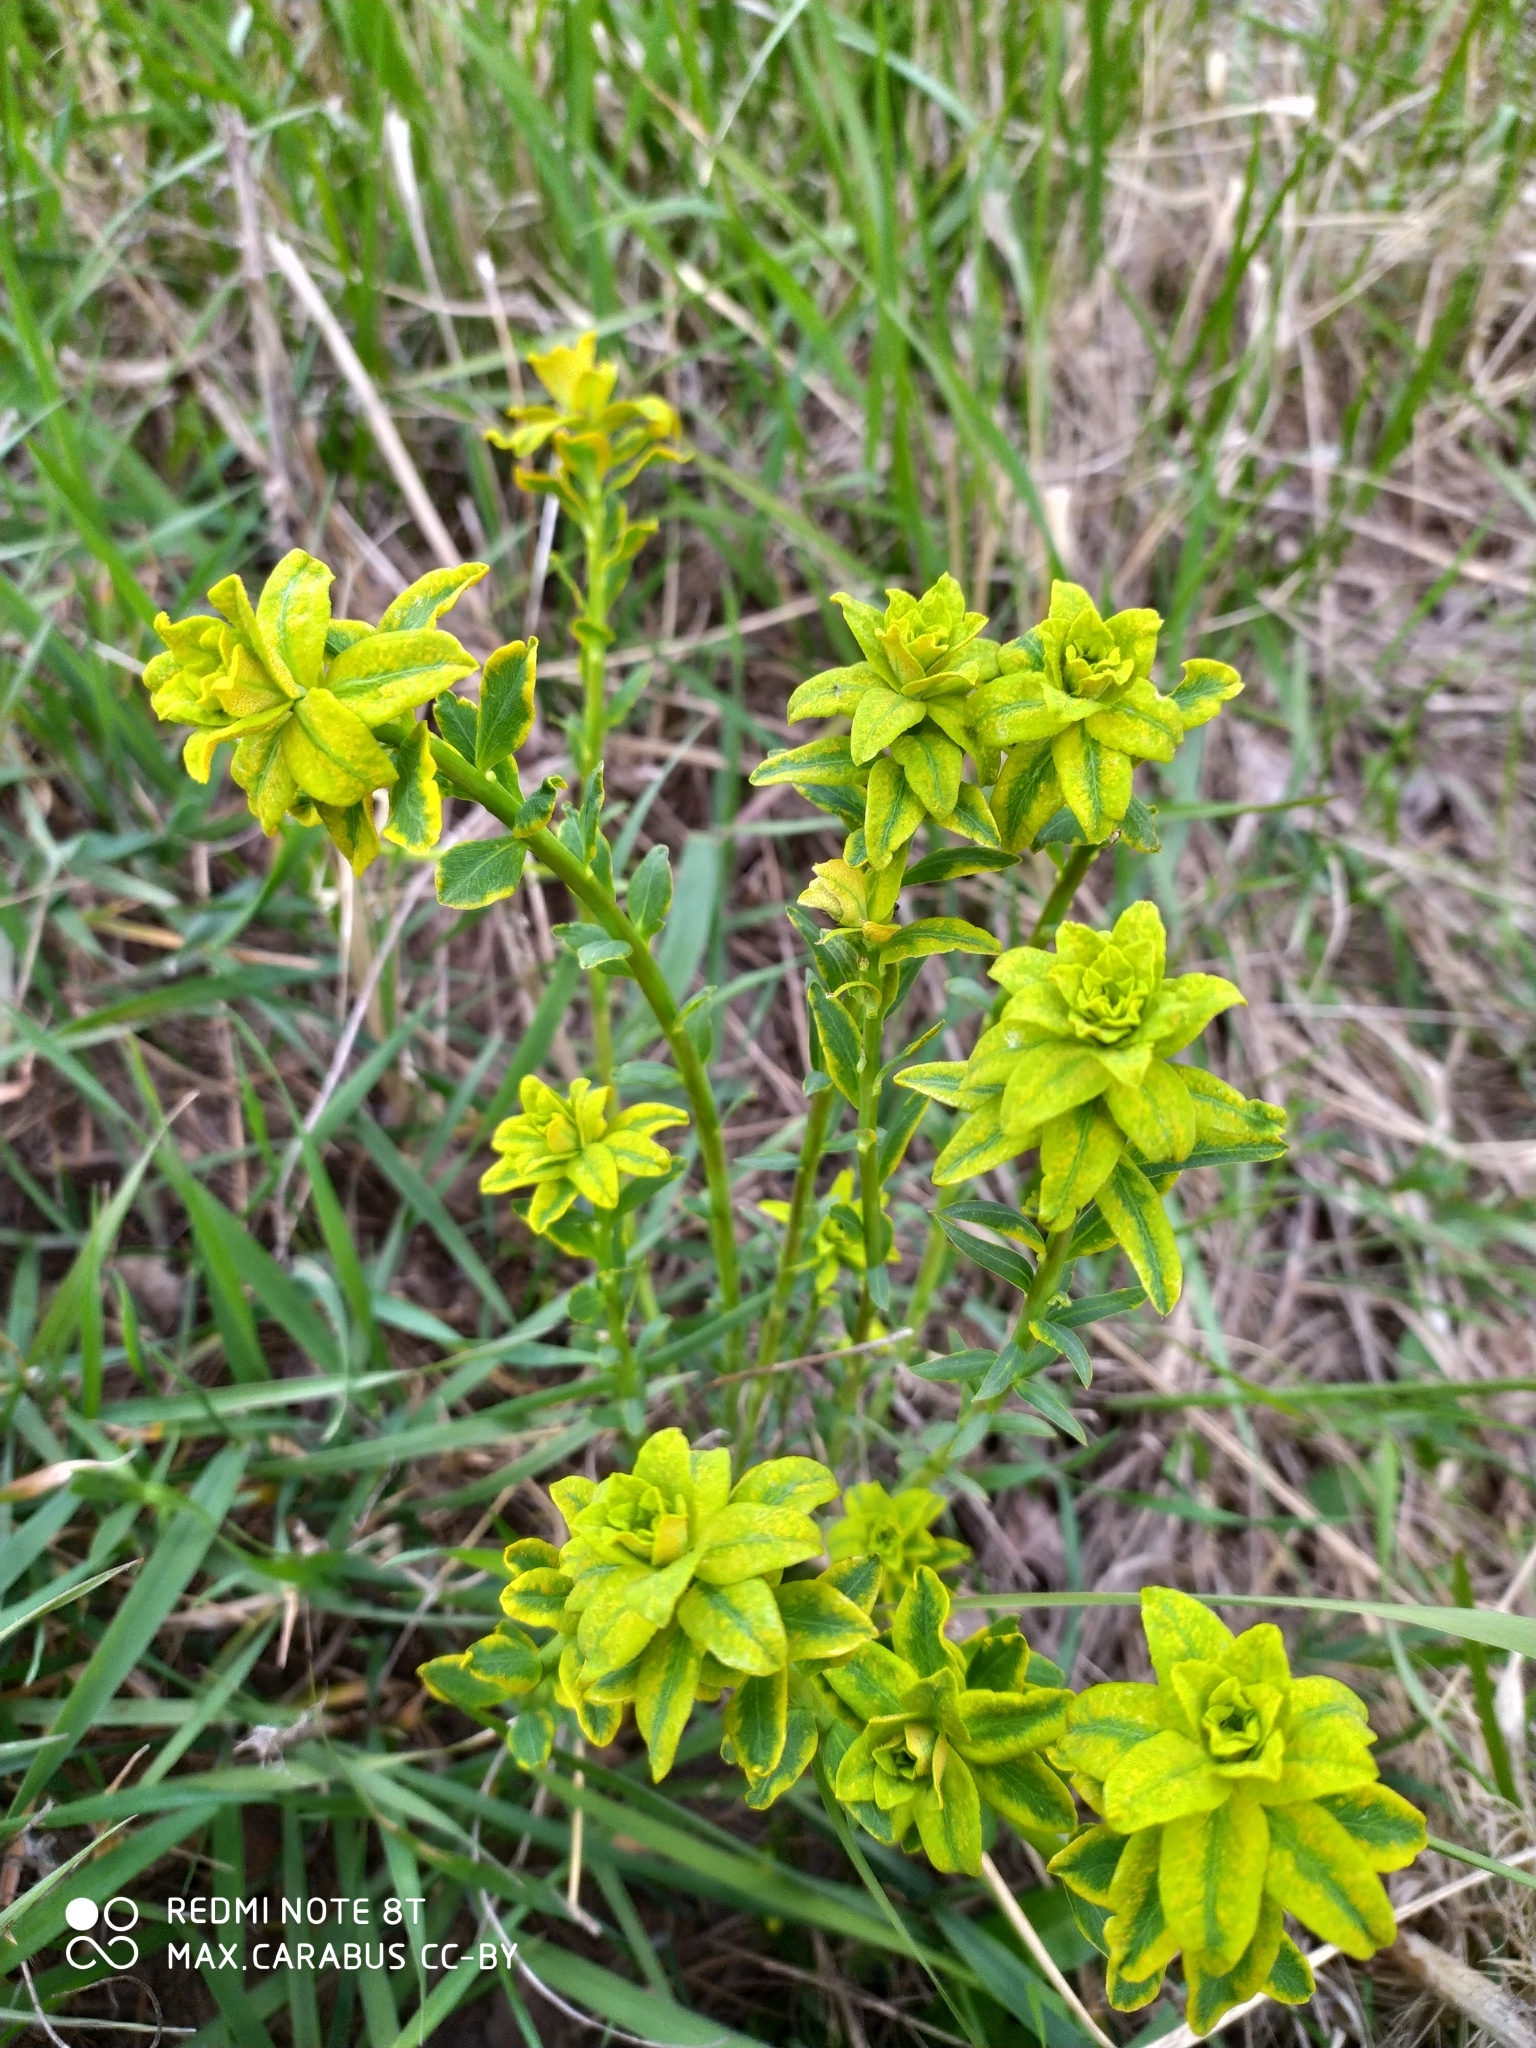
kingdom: Plantae
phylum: Tracheophyta
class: Magnoliopsida
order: Malpighiales
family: Euphorbiaceae
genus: Euphorbia
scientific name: Euphorbia virgata
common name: Leafy spurge
